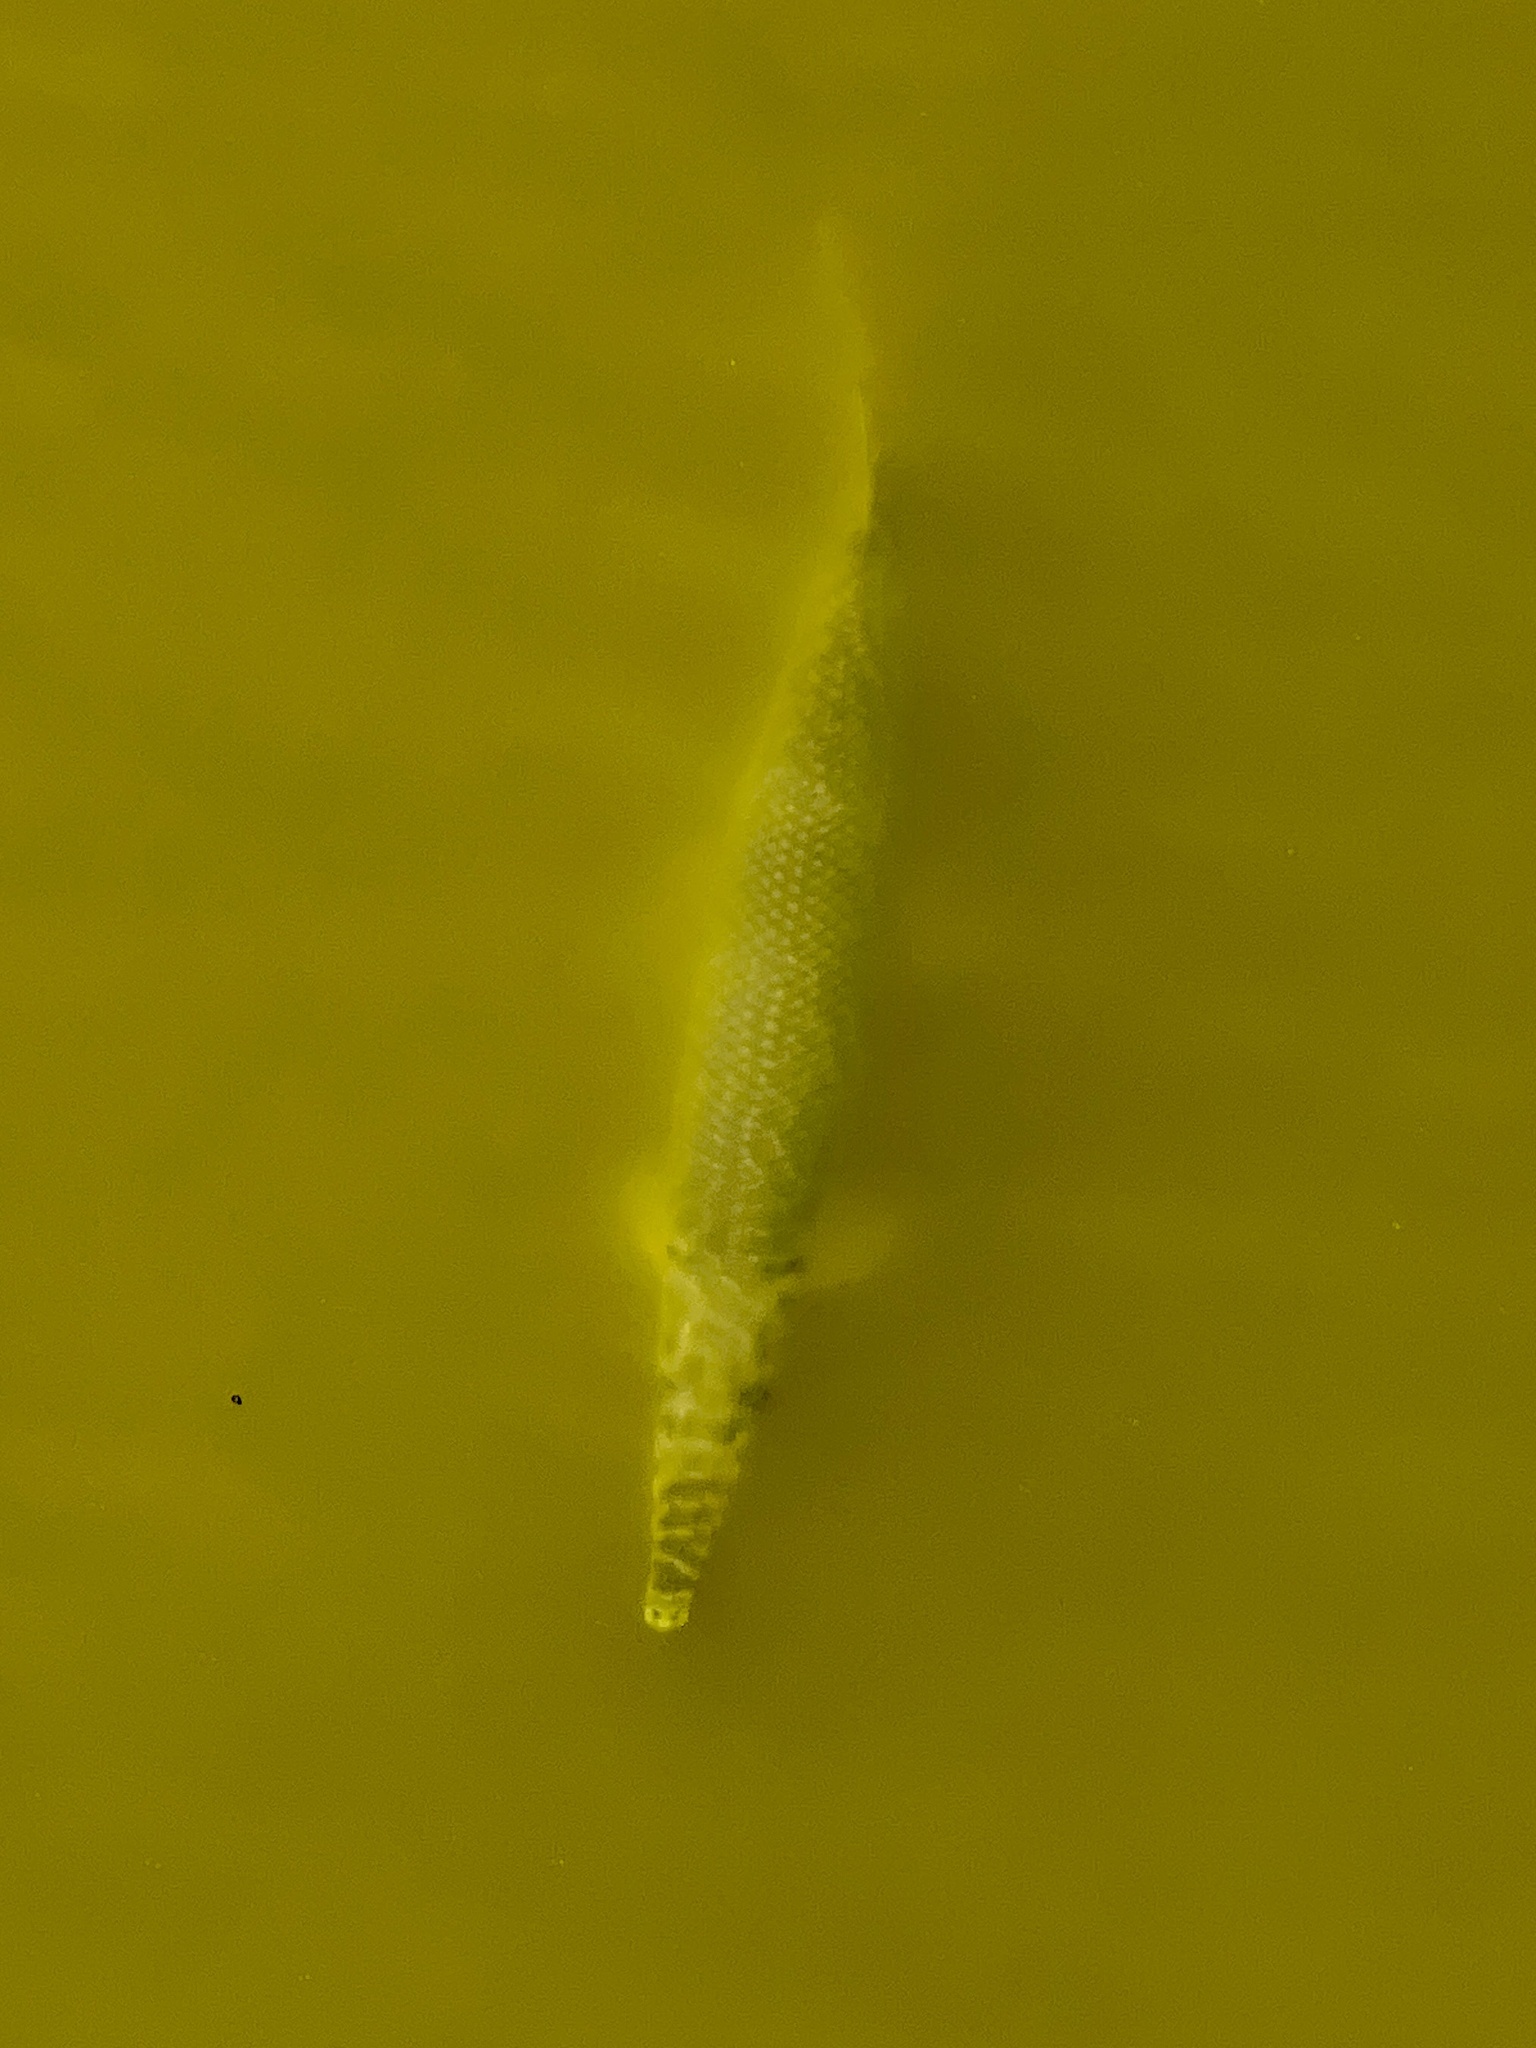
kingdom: Animalia
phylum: Chordata
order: Lepisosteiformes
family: Lepisosteidae
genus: Lepisosteus
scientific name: Lepisosteus oculatus
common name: Spotted gar
